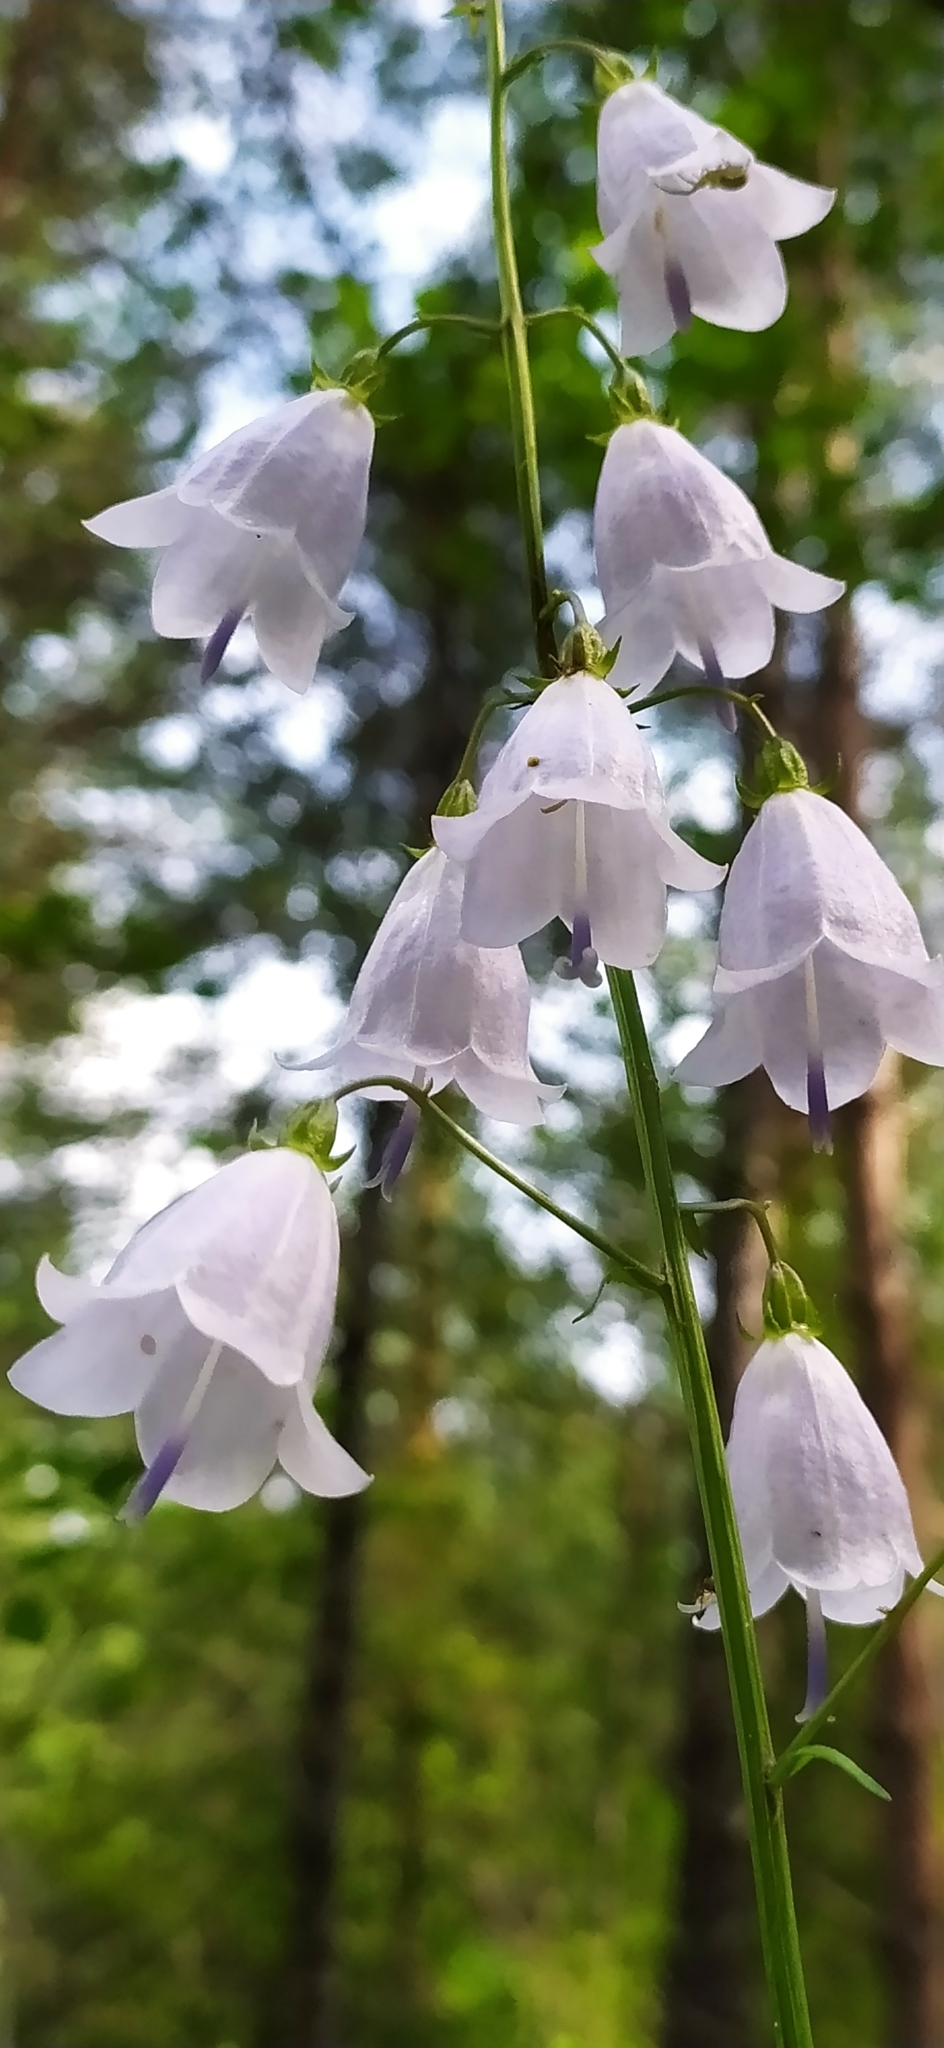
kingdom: Plantae
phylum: Tracheophyta
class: Magnoliopsida
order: Asterales
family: Campanulaceae
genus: Adenophora
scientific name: Adenophora liliifolia
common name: Lilyleaf ladybells
